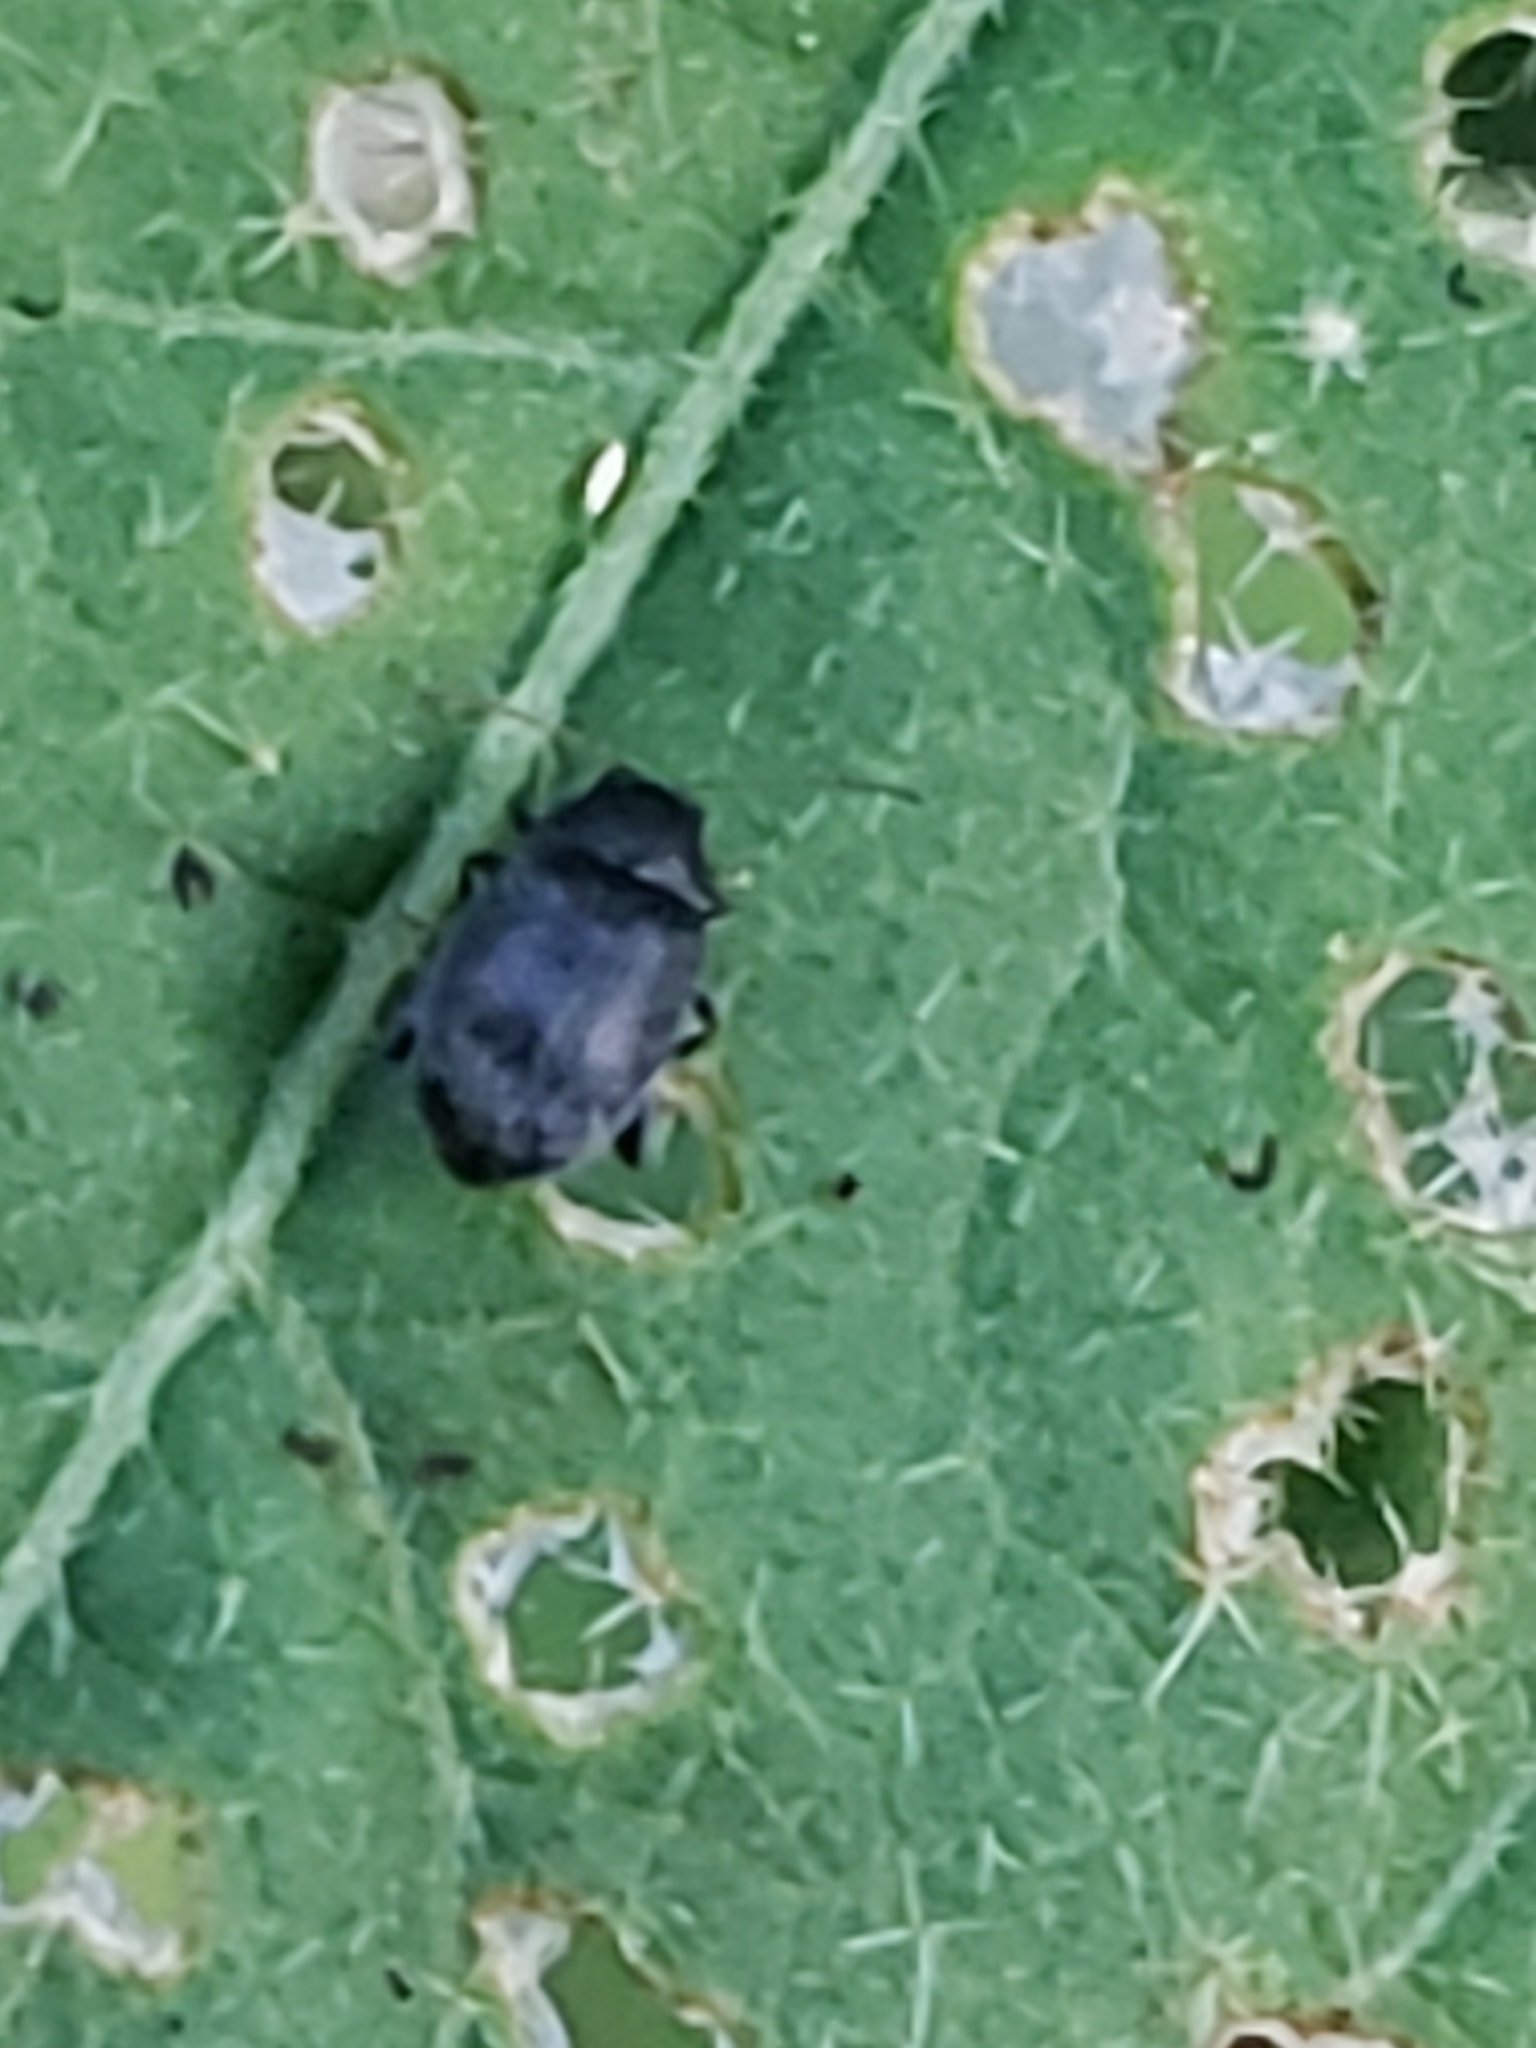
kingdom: Animalia
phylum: Arthropoda
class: Insecta
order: Coleoptera
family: Chrysomelidae
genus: Epitrix
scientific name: Epitrix fuscula
